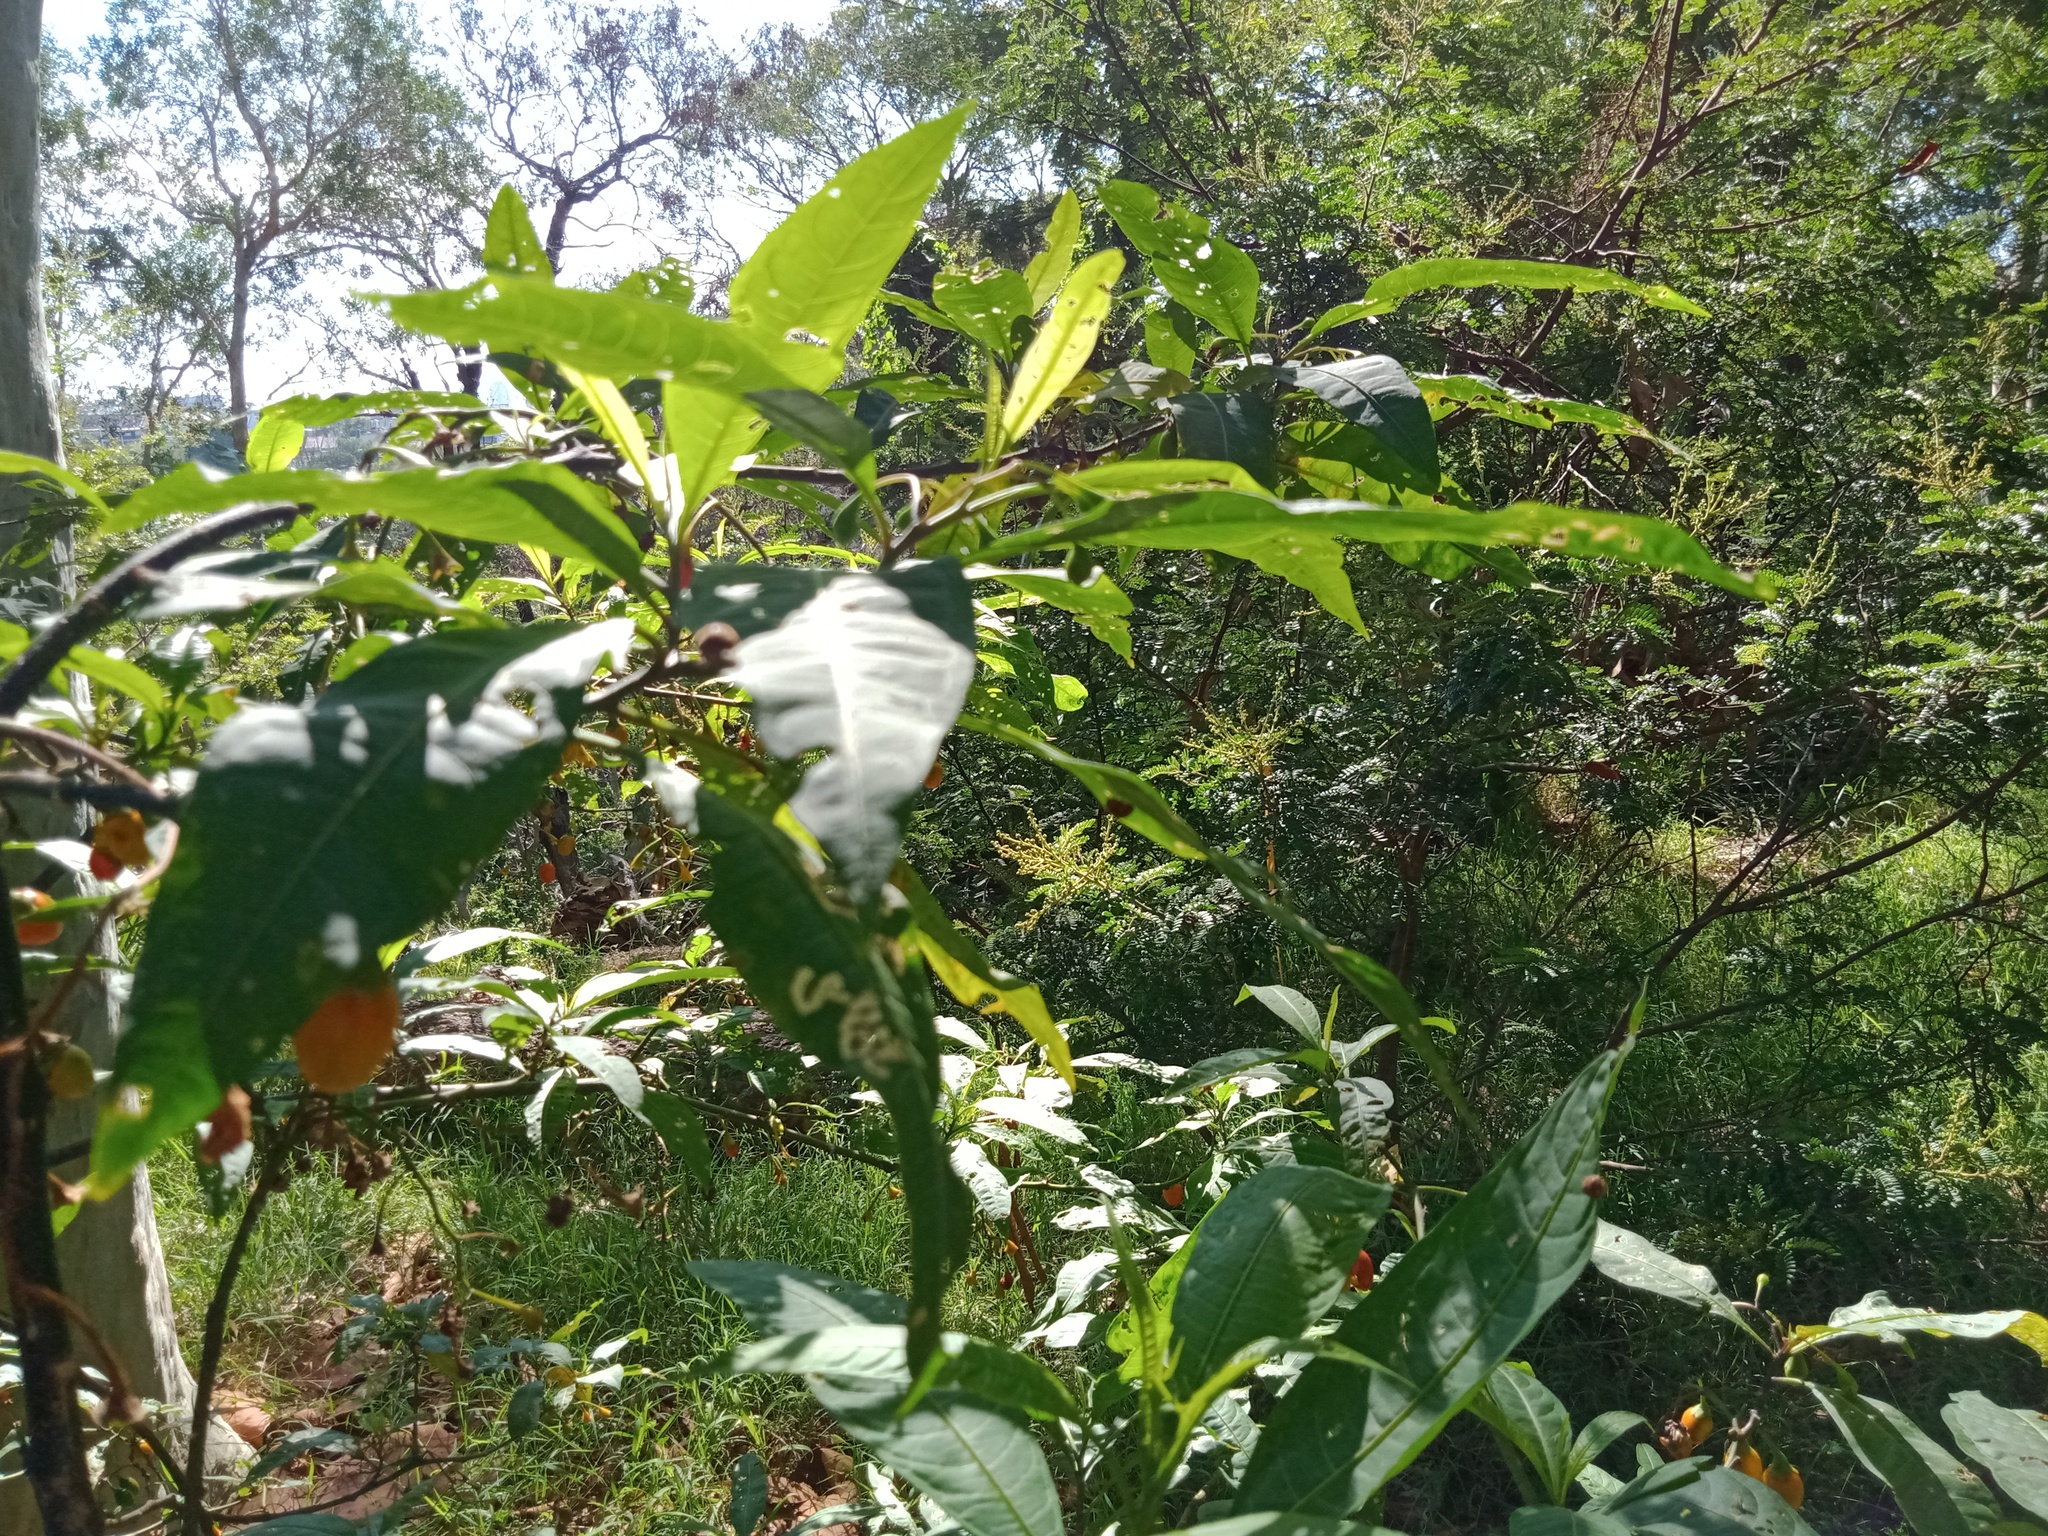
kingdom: Plantae
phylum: Tracheophyta
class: Magnoliopsida
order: Solanales
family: Solanaceae
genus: Solanum
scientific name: Solanum laciniatum
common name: Kangaroo-apple
